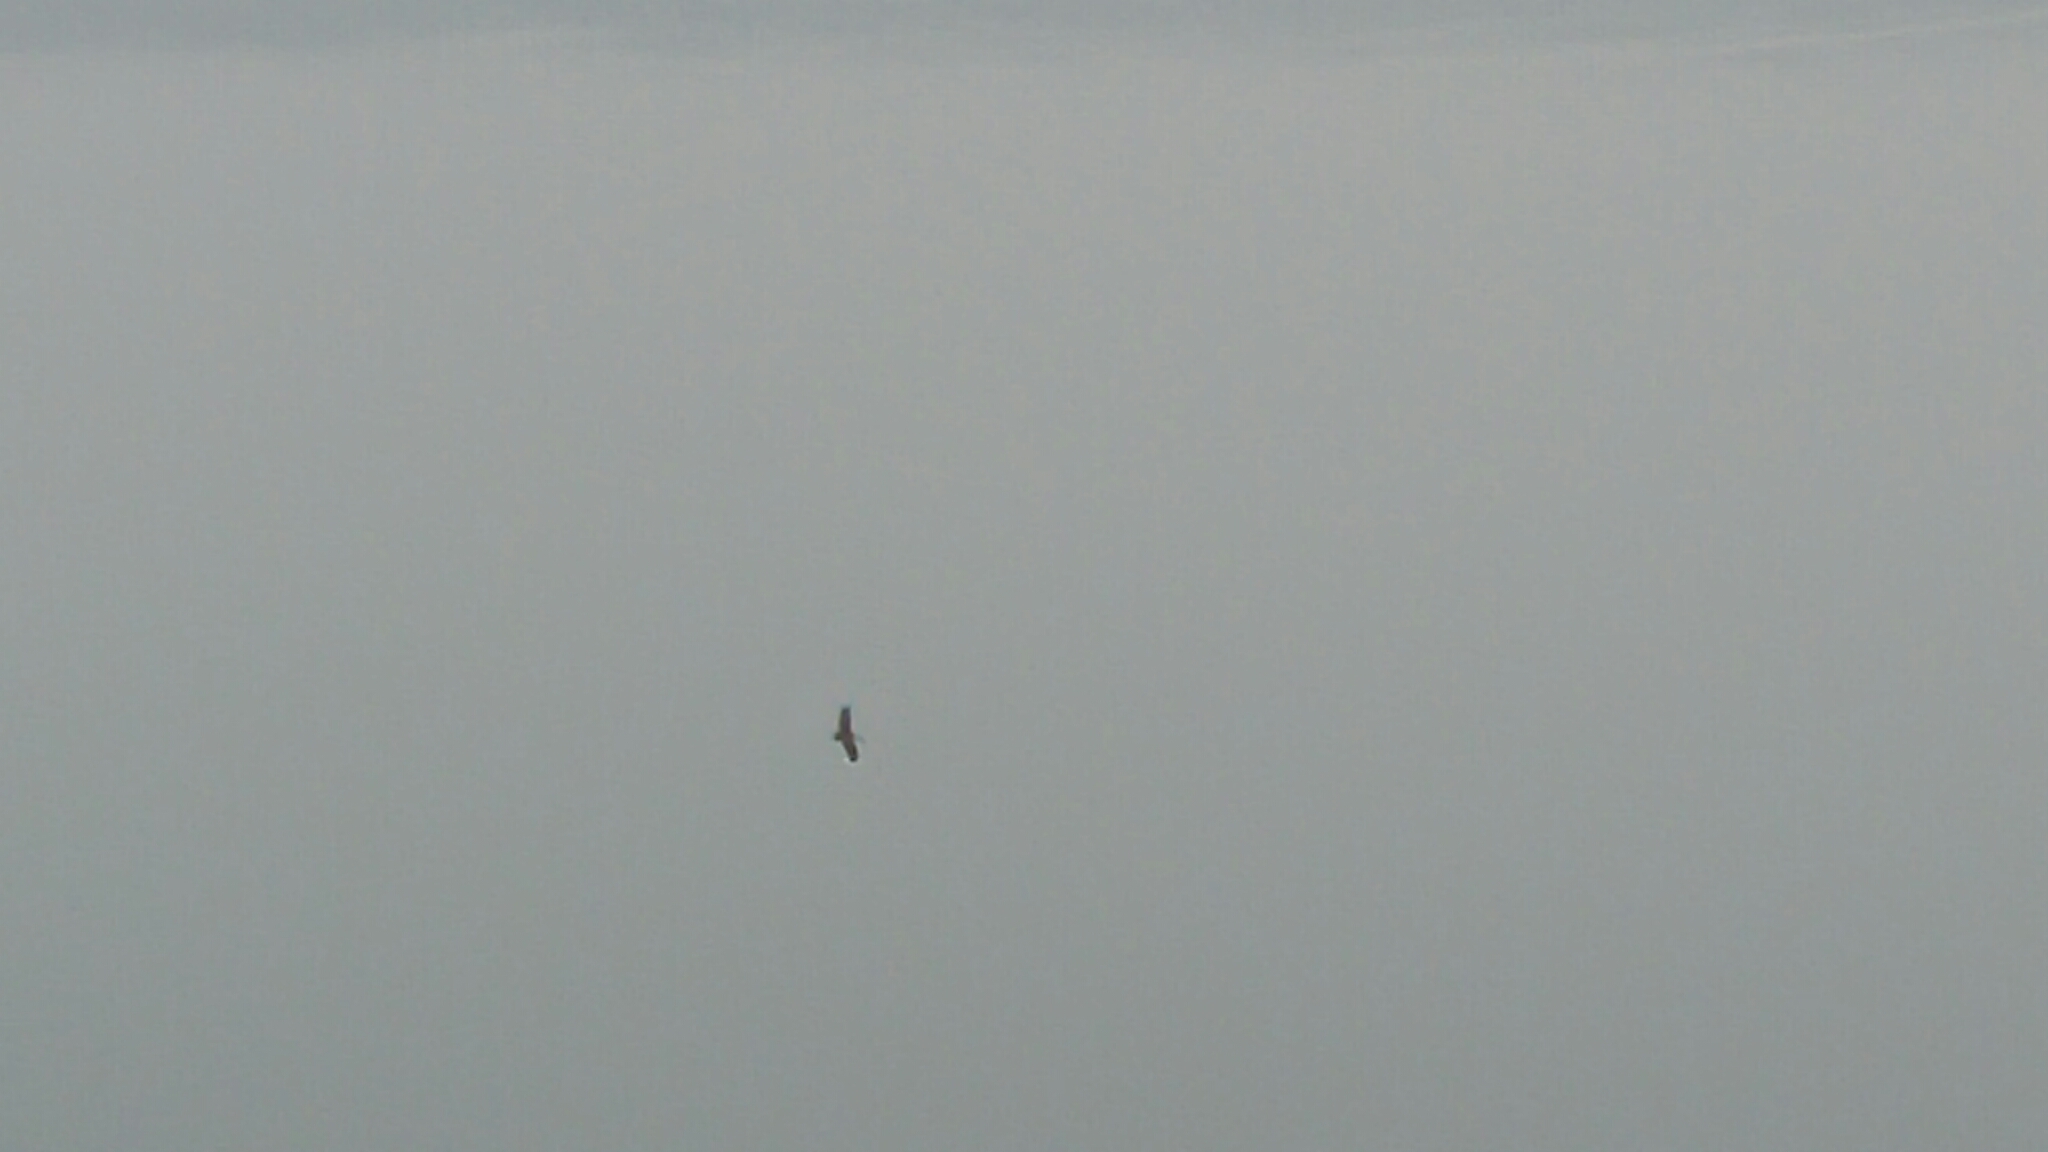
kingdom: Animalia
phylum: Chordata
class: Aves
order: Ciconiiformes
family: Ciconiidae
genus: Ciconia
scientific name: Ciconia nigra
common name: Black stork
